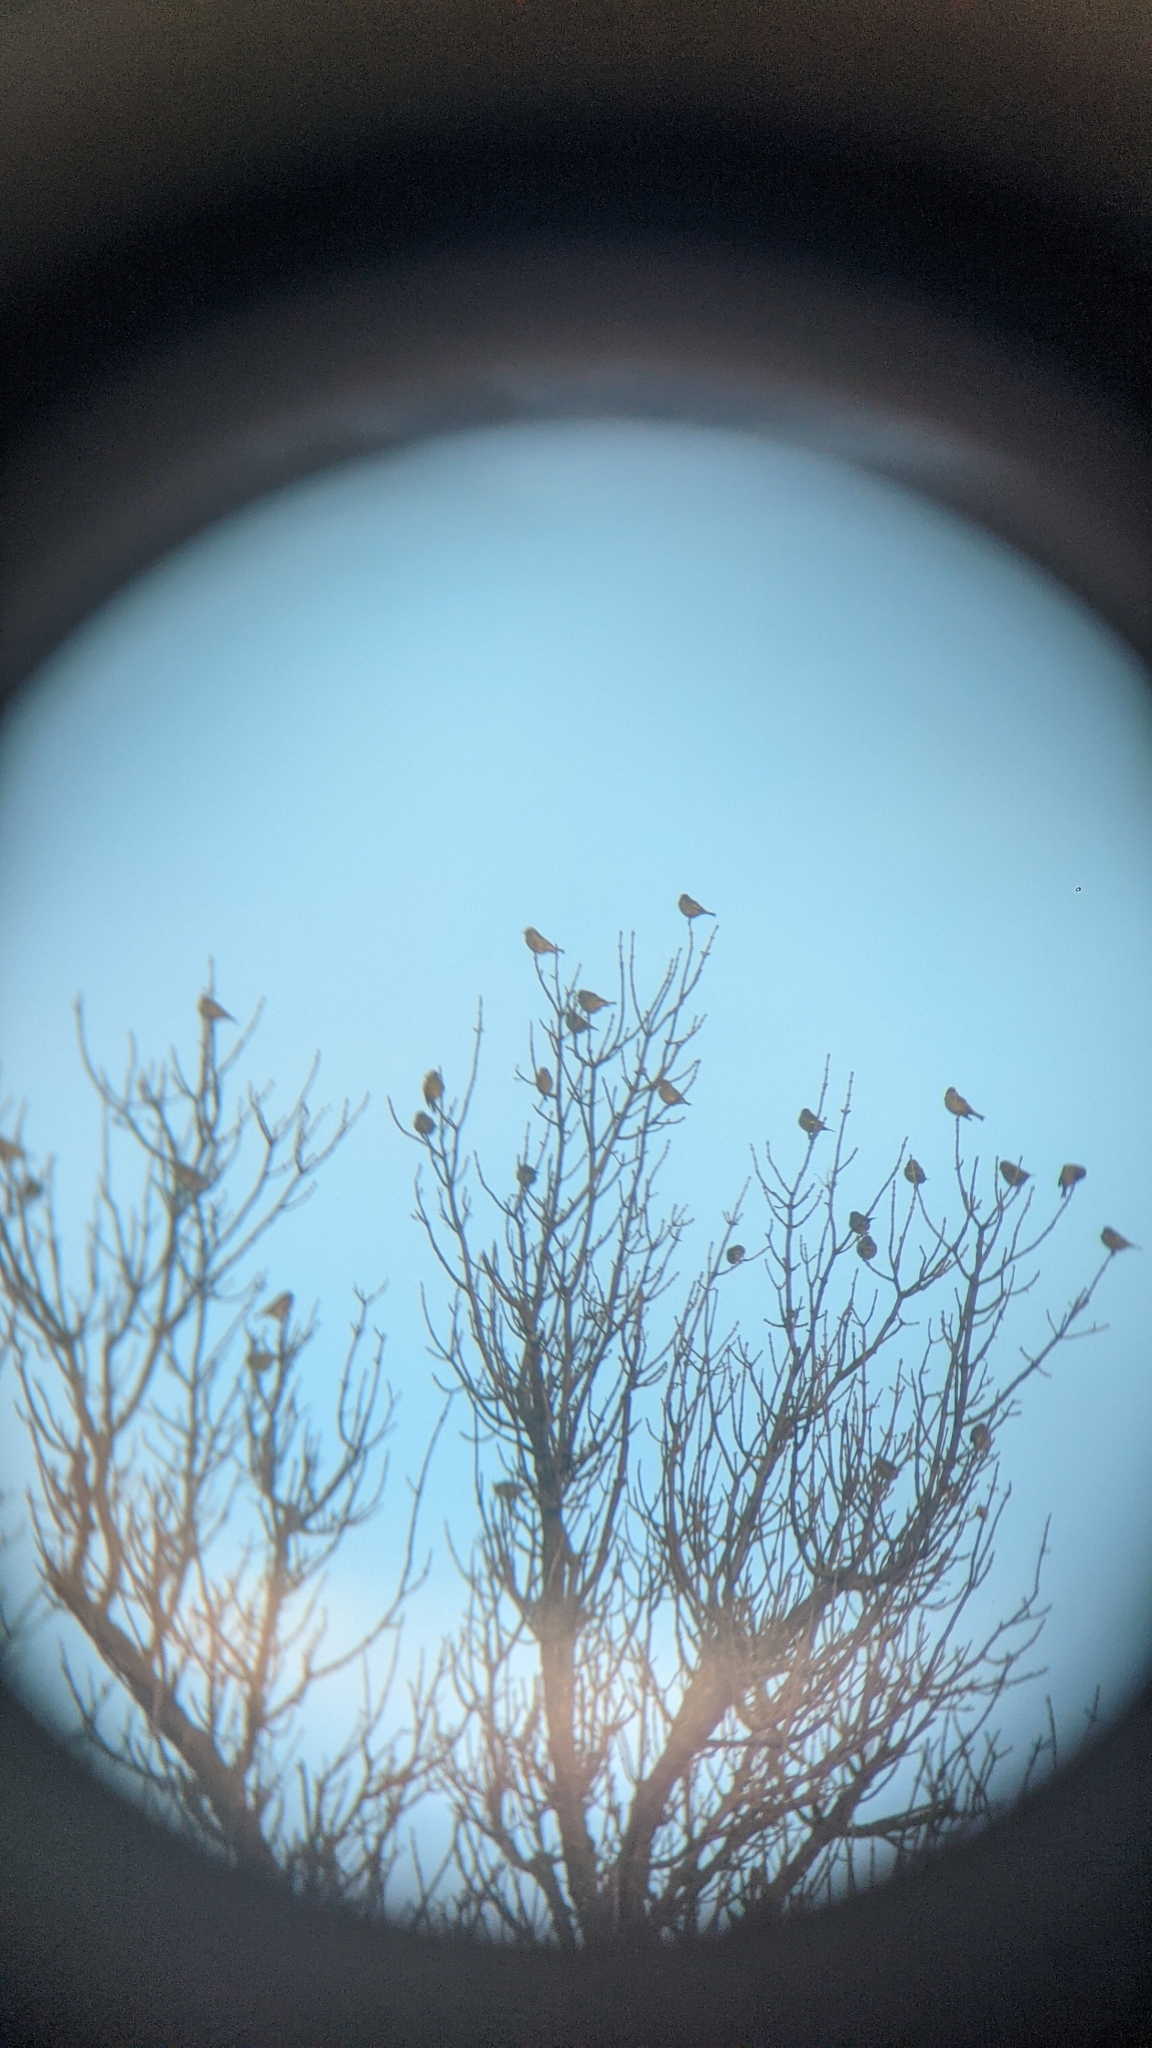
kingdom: Plantae
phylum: Tracheophyta
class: Liliopsida
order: Poales
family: Poaceae
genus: Chloris
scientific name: Chloris chloris
